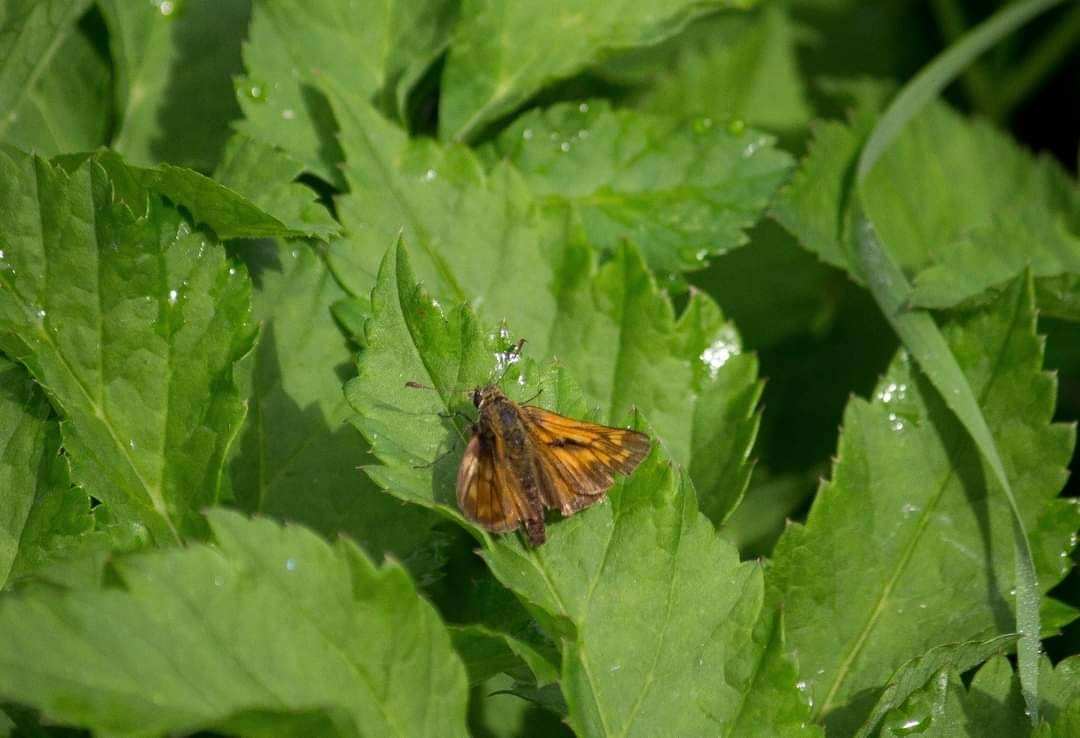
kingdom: Animalia
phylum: Arthropoda
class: Insecta
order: Lepidoptera
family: Hesperiidae
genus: Ochlodes
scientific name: Ochlodes venata
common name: Large skipper
